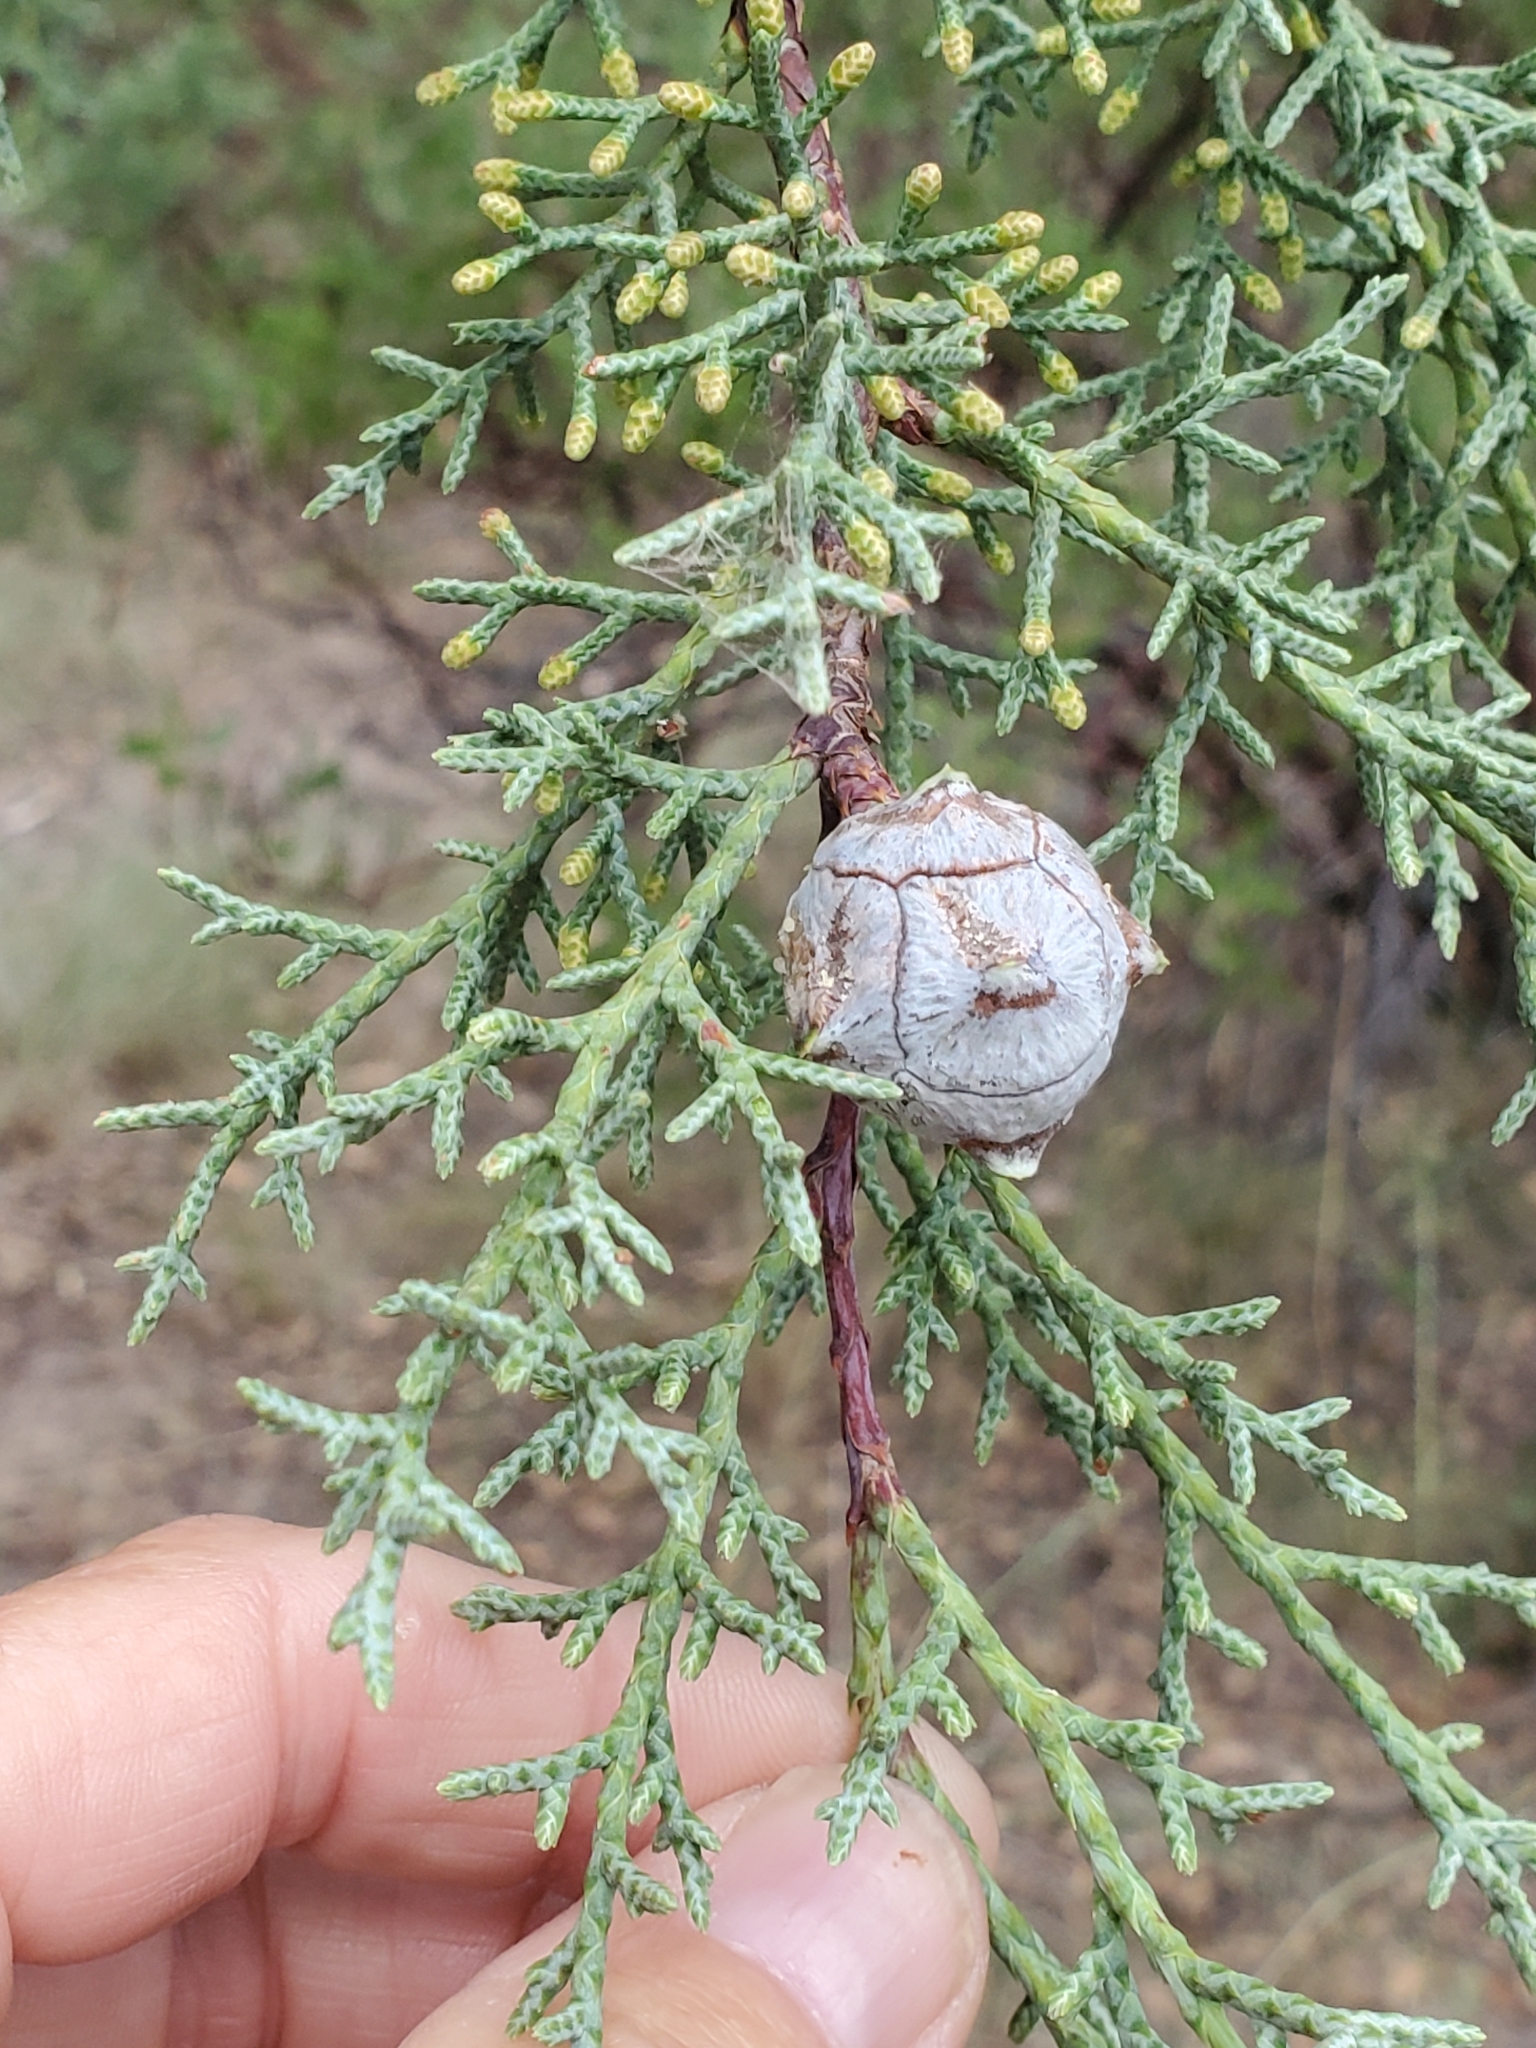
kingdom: Plantae
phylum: Tracheophyta
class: Pinopsida
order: Pinales
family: Cupressaceae
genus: Cupressus
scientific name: Cupressus arizonica
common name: Arizona cypress
